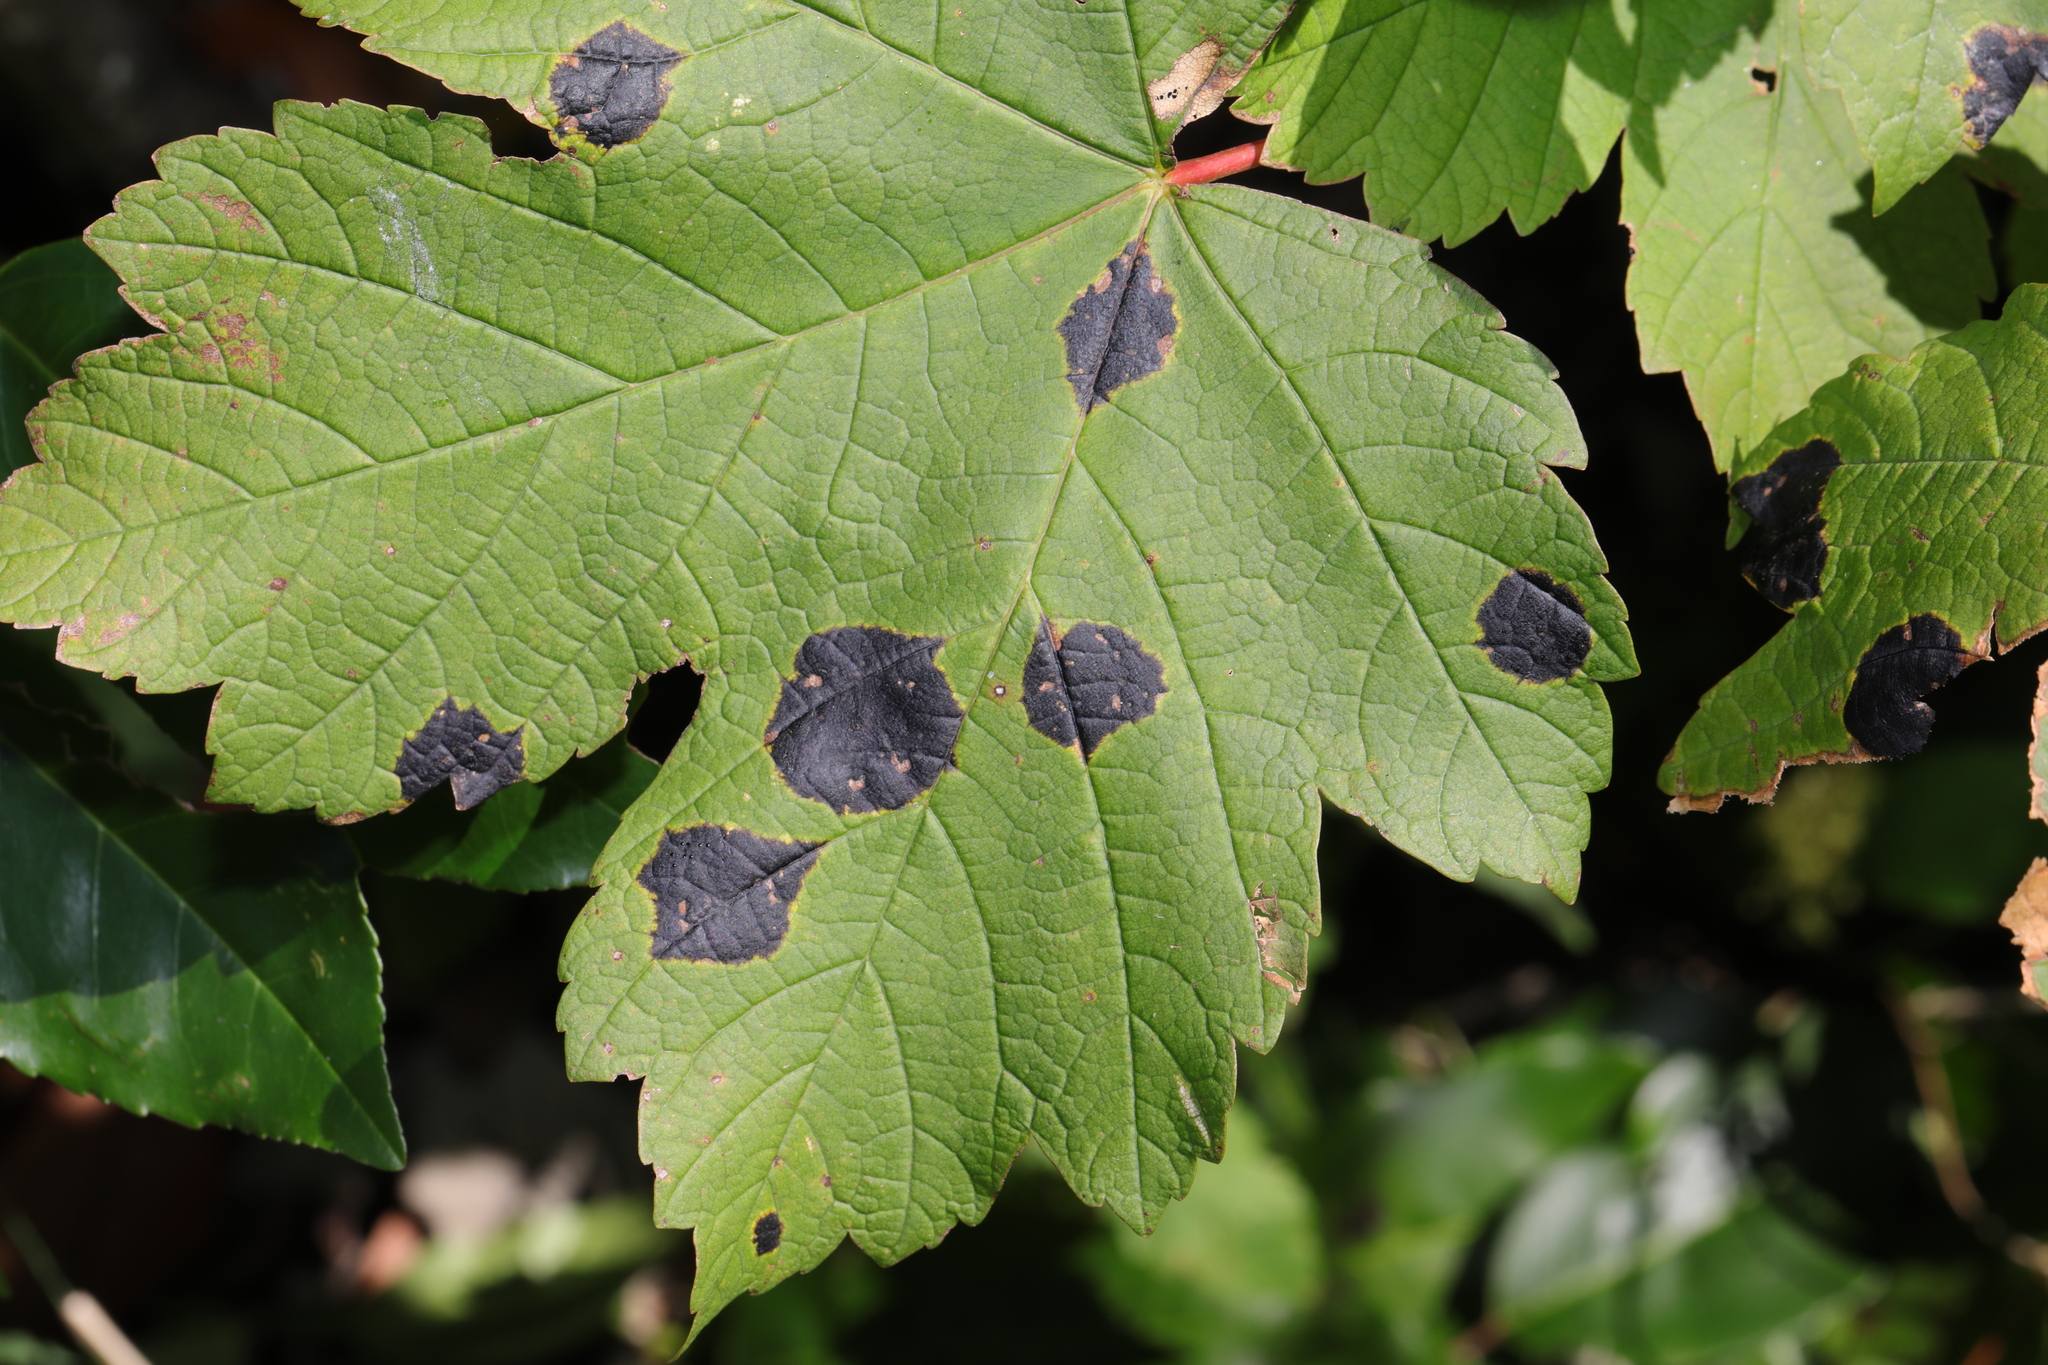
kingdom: Fungi
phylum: Ascomycota
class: Leotiomycetes
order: Rhytismatales
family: Rhytismataceae
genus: Rhytisma
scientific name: Rhytisma acerinum
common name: European tar spot
